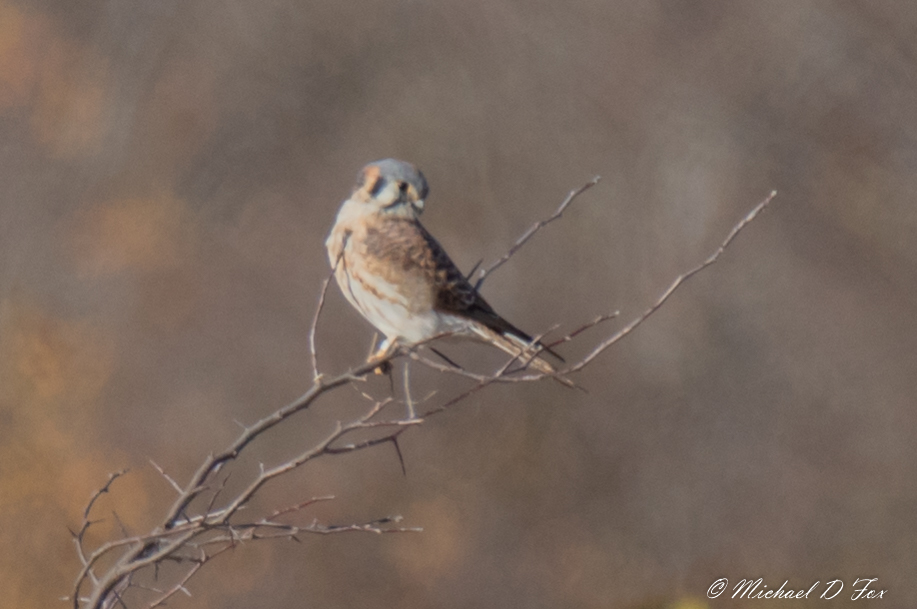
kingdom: Animalia
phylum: Chordata
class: Aves
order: Falconiformes
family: Falconidae
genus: Falco
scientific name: Falco sparverius
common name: American kestrel
